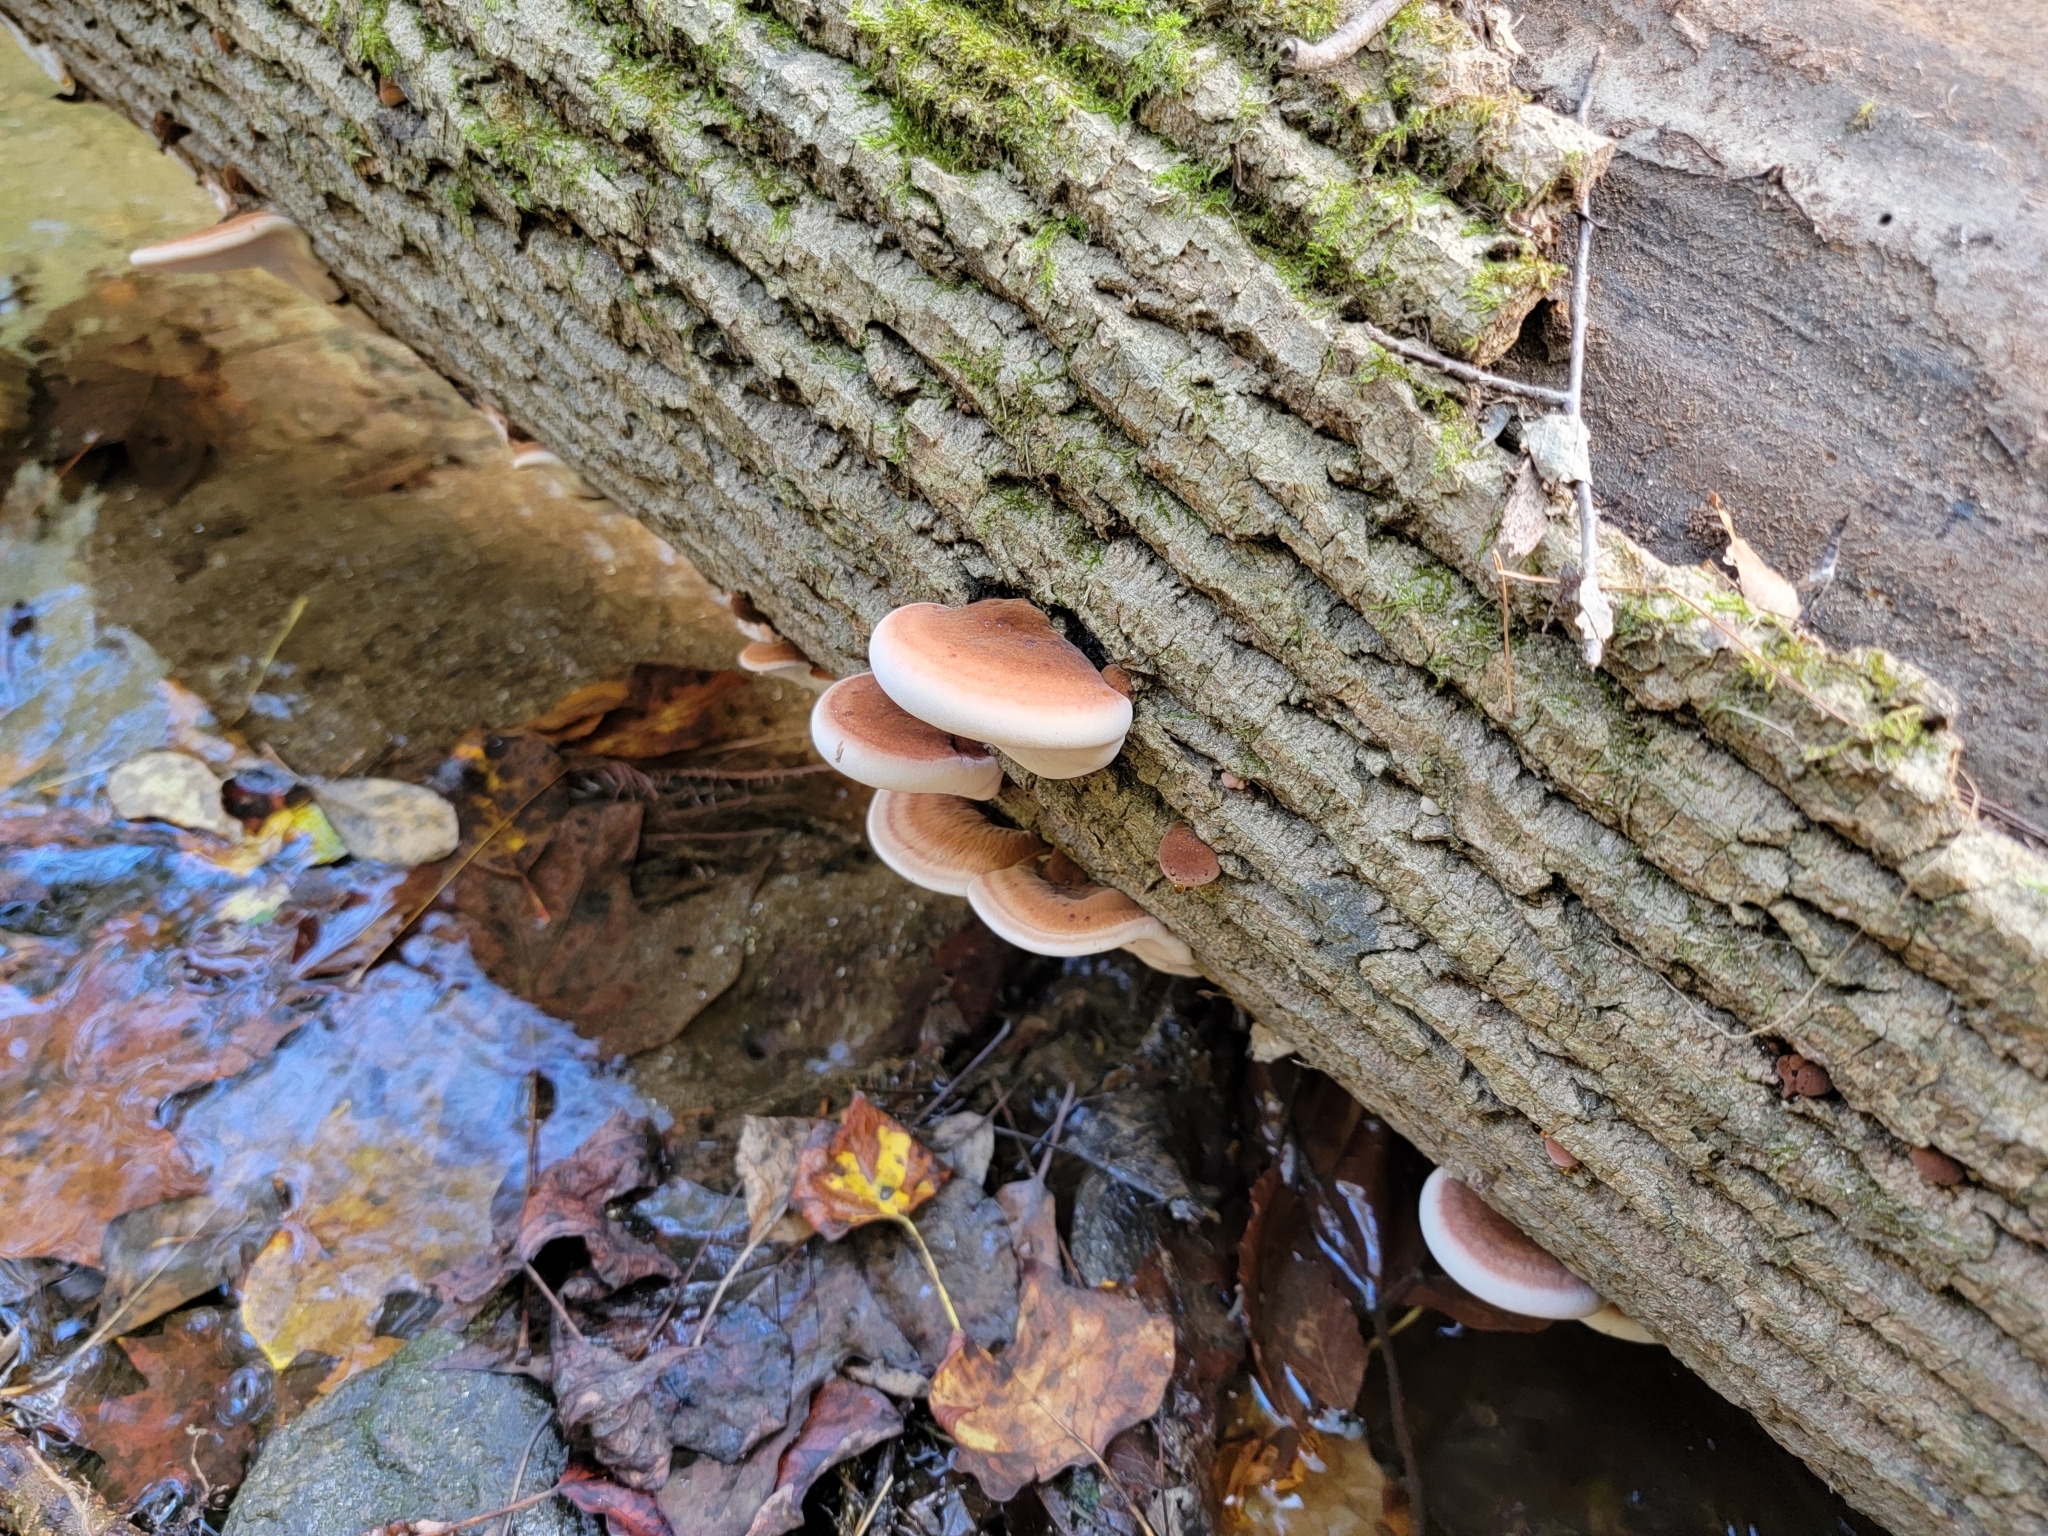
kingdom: Fungi
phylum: Basidiomycota
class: Agaricomycetes
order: Polyporales
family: Ischnodermataceae
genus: Ischnoderma
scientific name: Ischnoderma resinosum
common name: Resinous polypore
